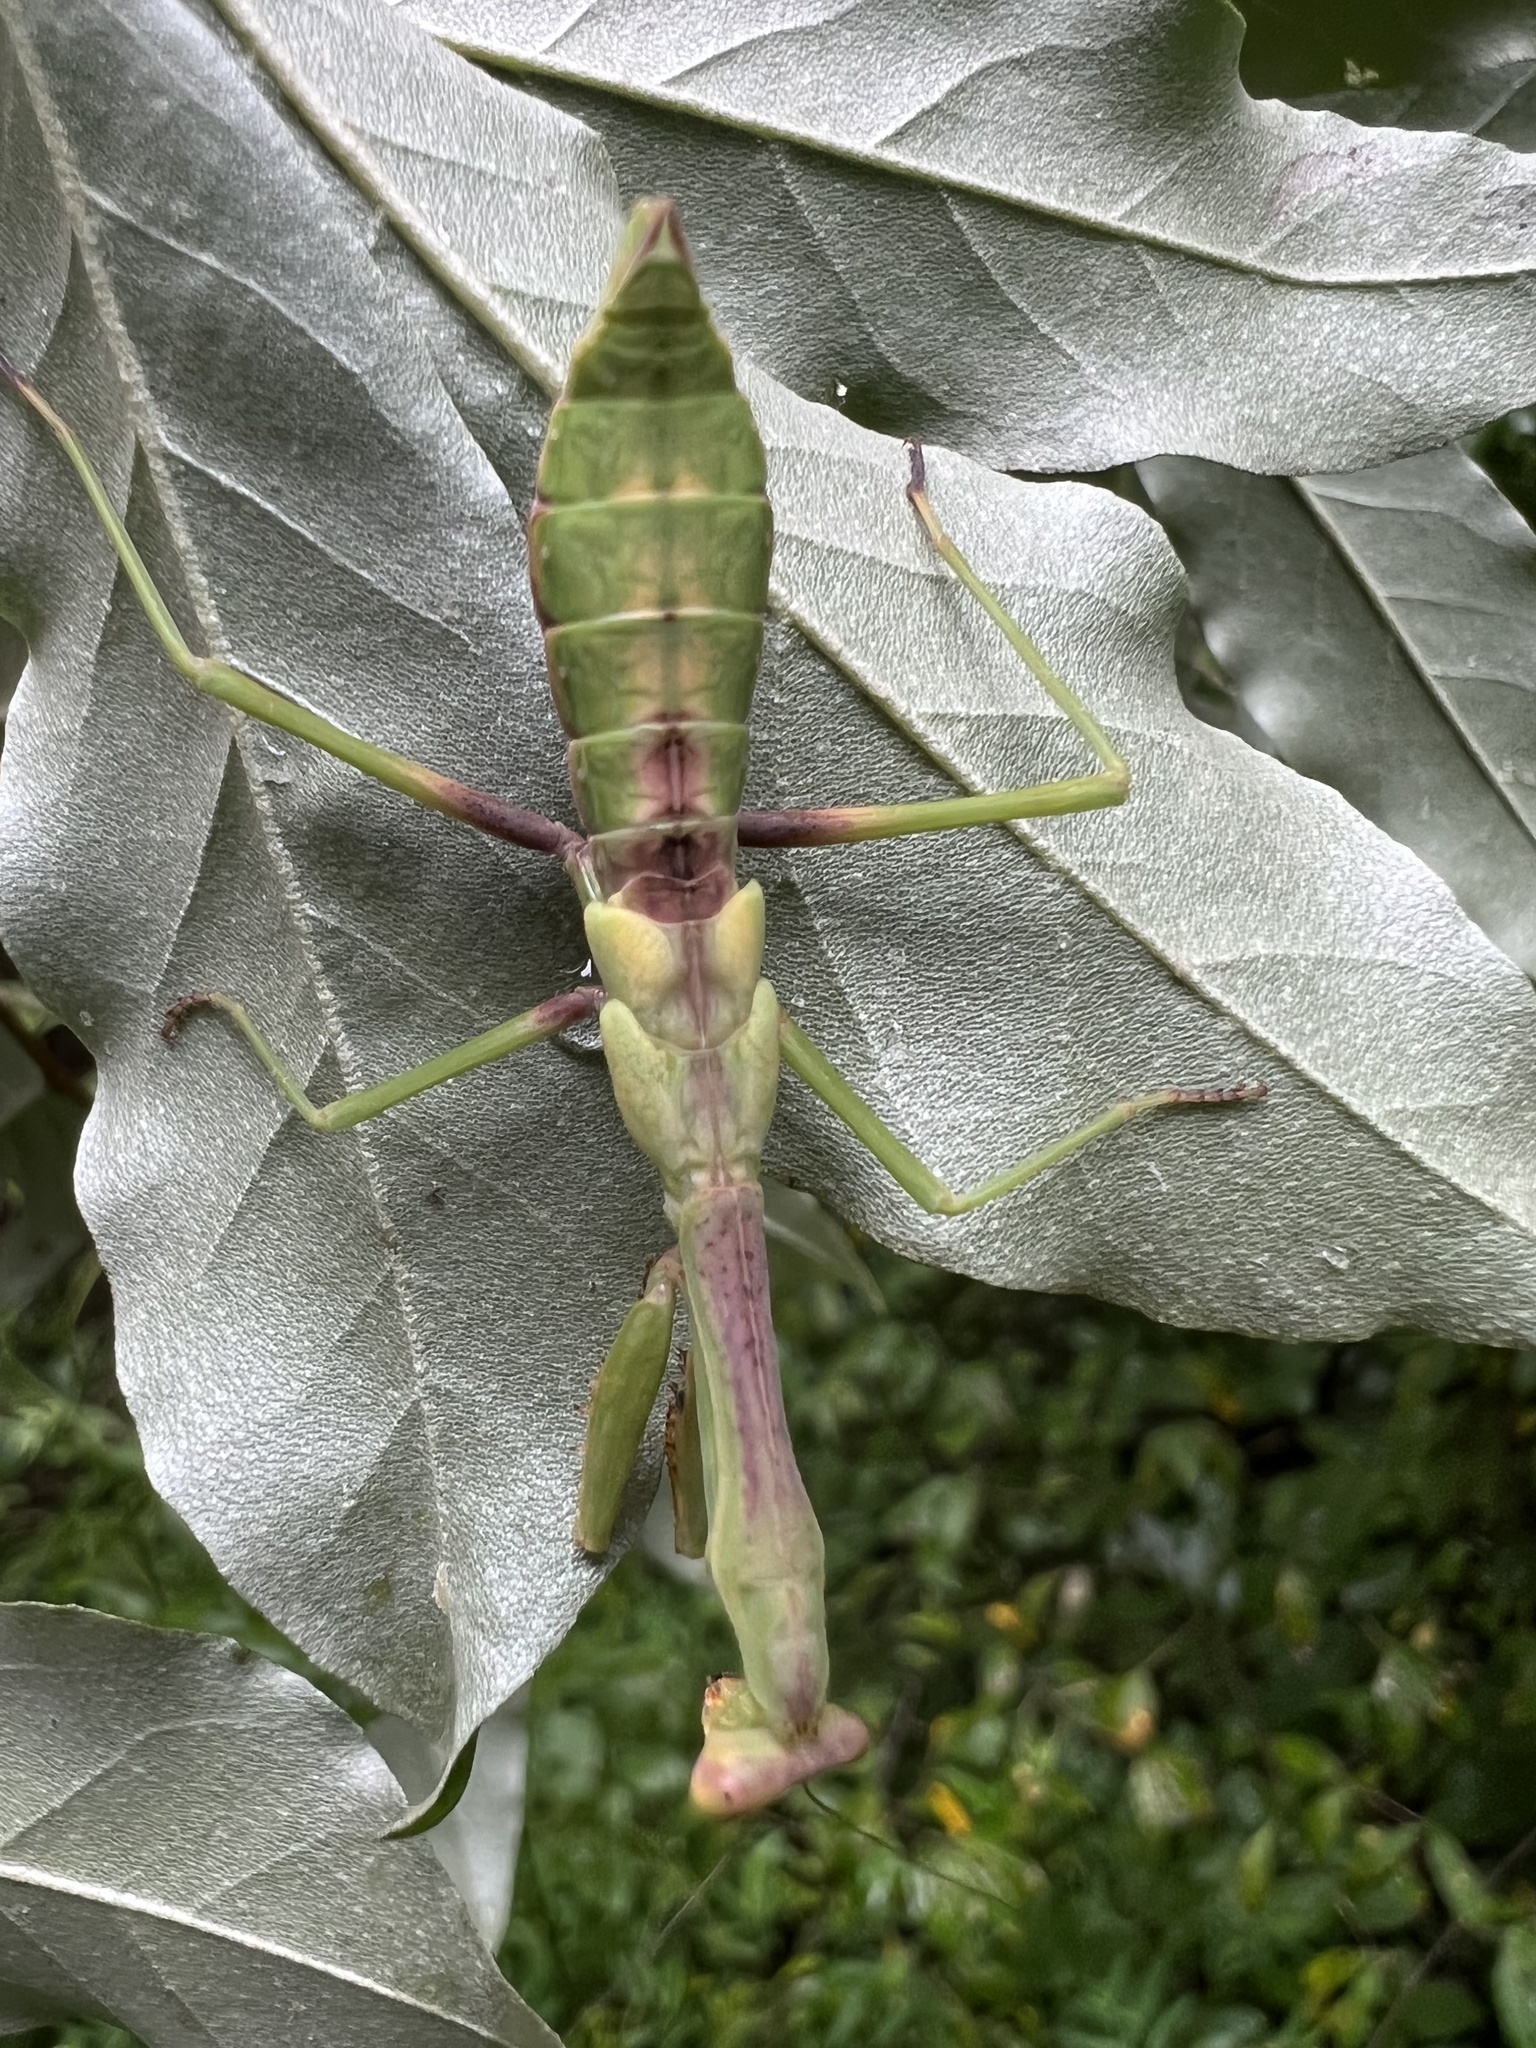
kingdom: Animalia
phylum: Arthropoda
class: Insecta
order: Mantodea
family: Mantidae
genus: Stagmomantis
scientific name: Stagmomantis carolina
